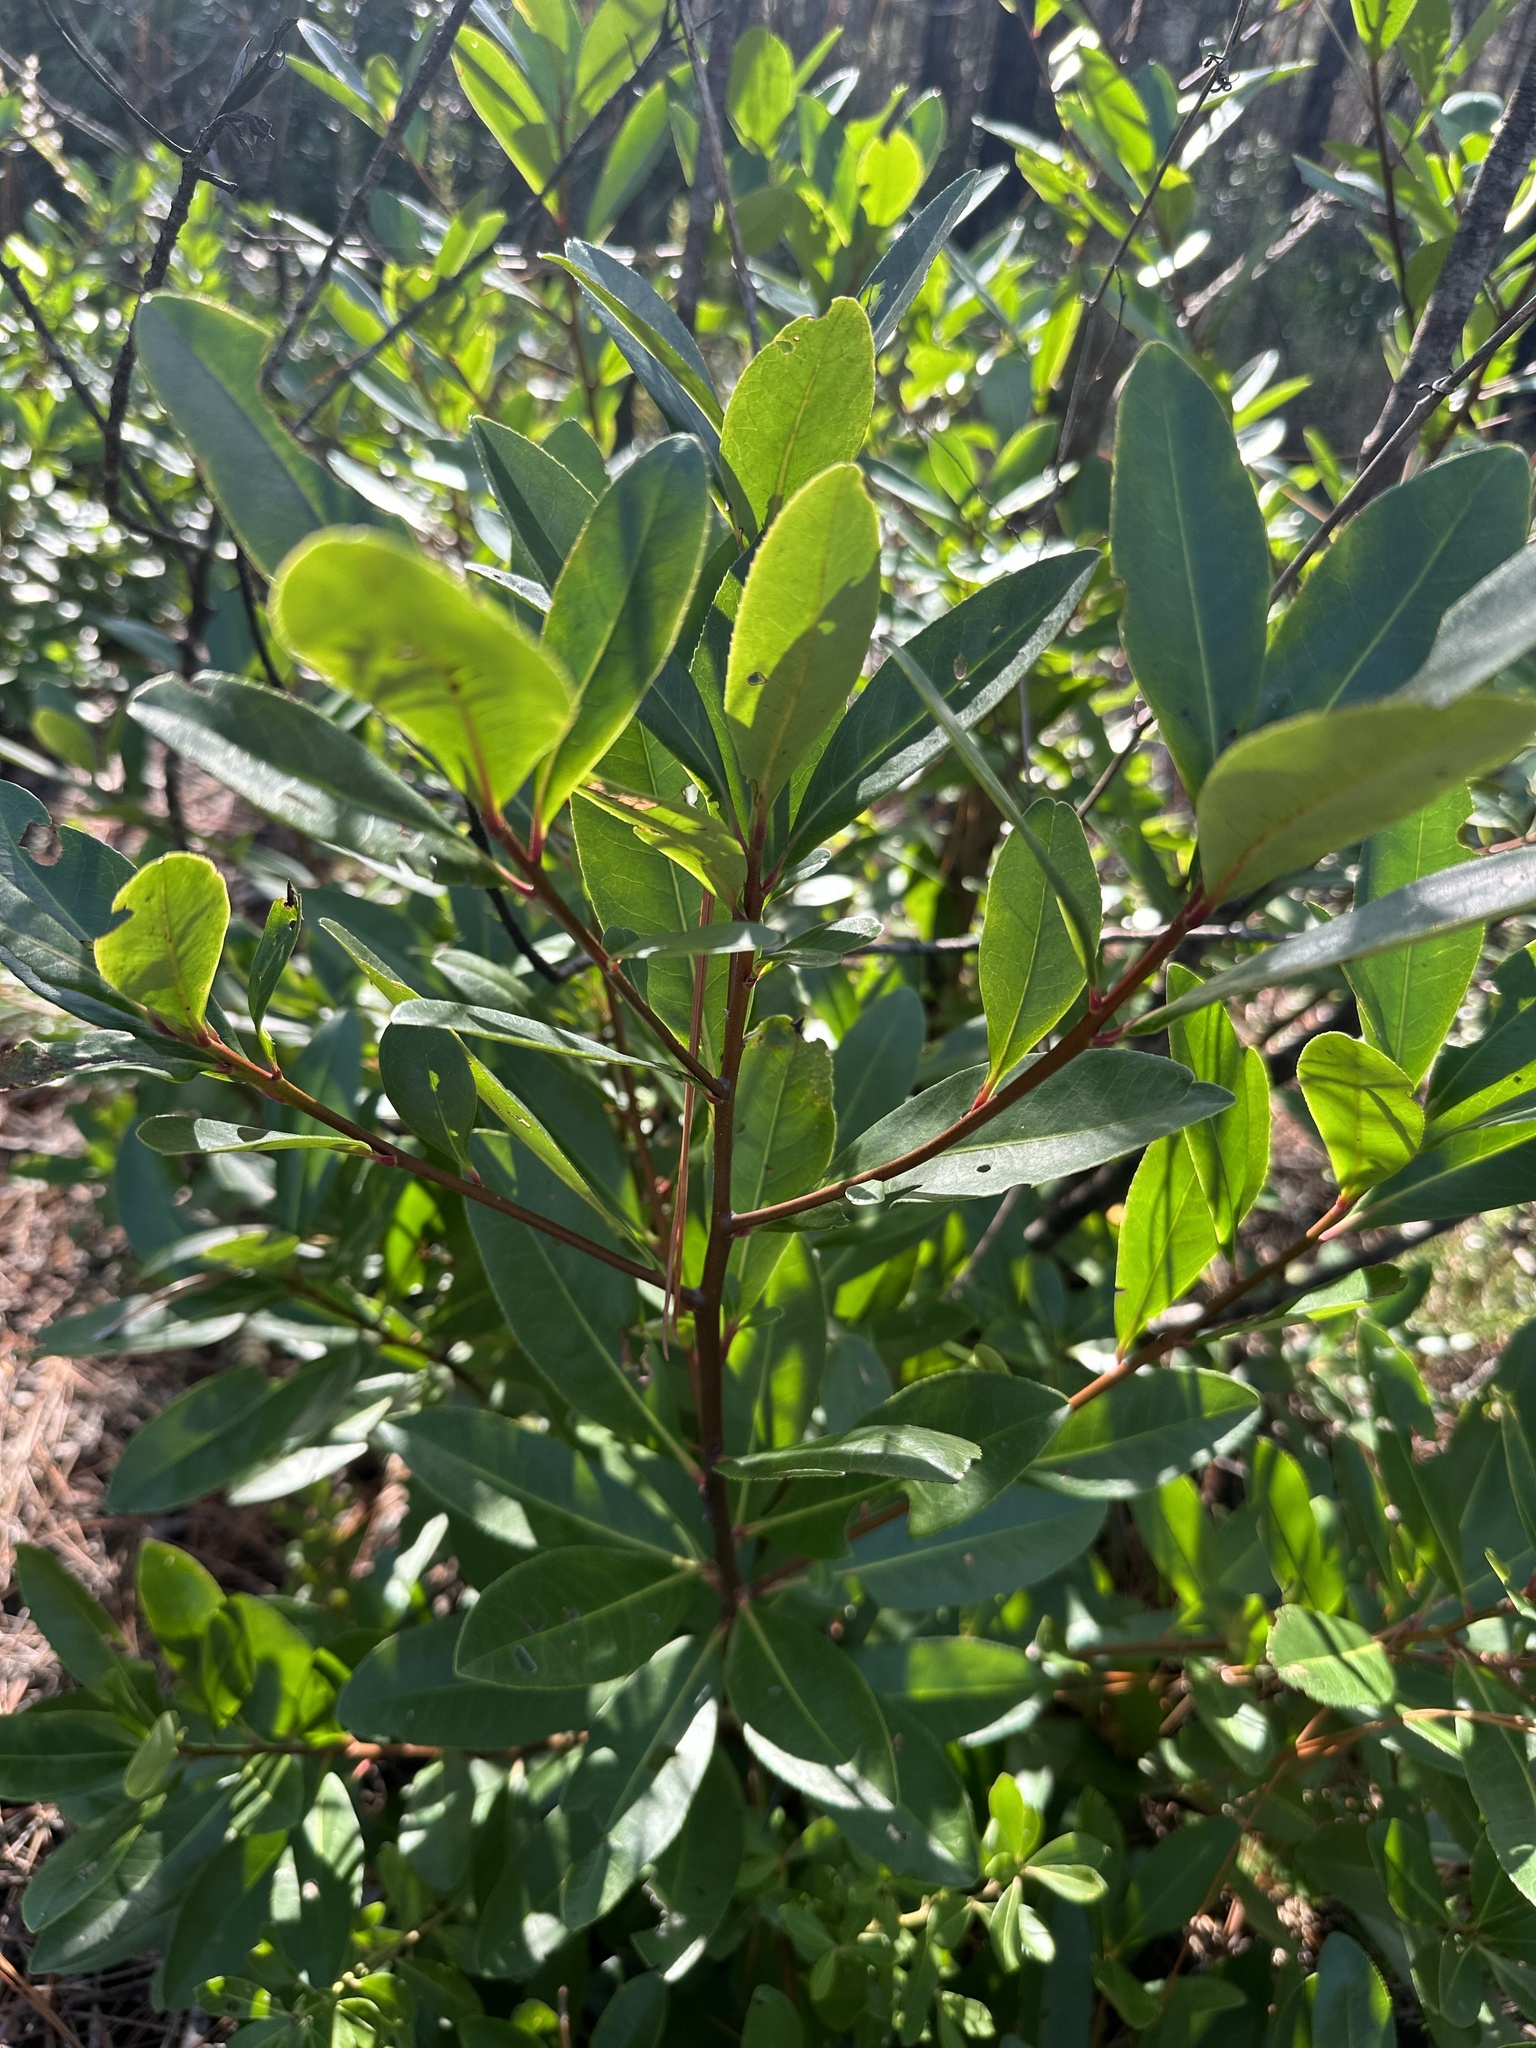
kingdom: Plantae
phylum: Tracheophyta
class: Magnoliopsida
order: Ericales
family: Theaceae
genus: Gordonia
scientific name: Gordonia lasianthus
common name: Loblolly bay
